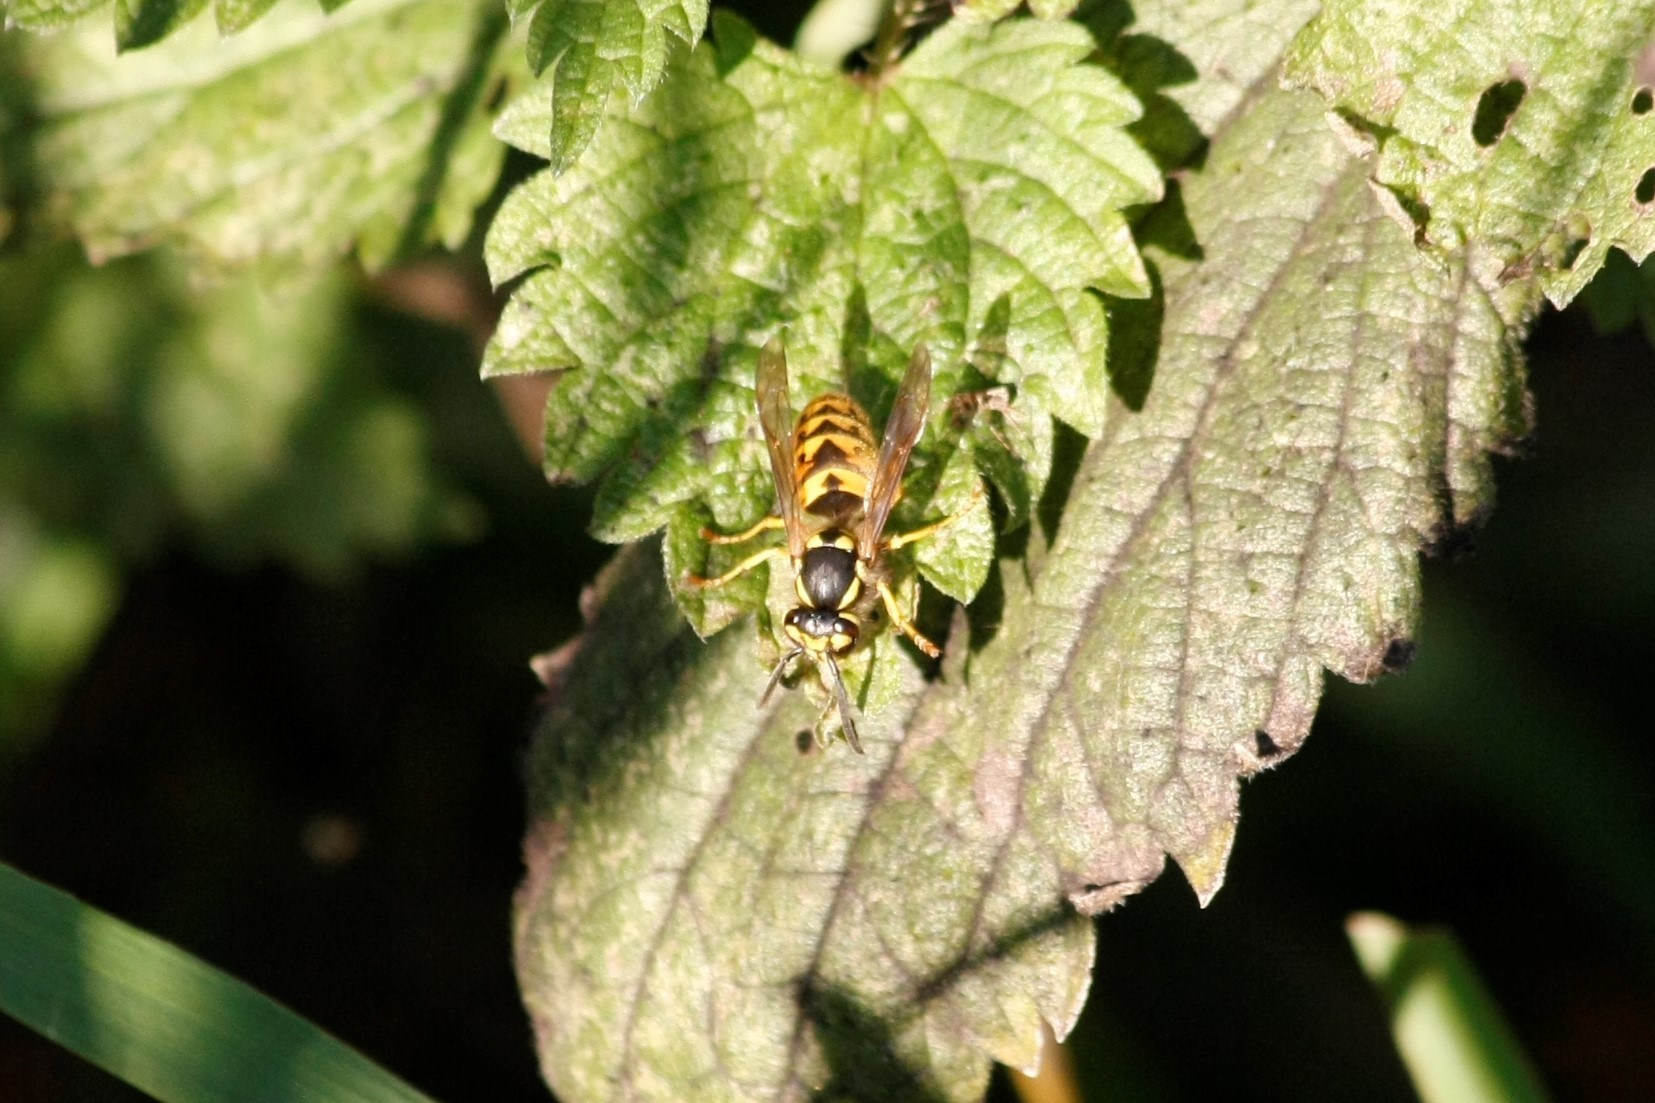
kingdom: Animalia
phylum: Arthropoda
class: Insecta
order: Hymenoptera
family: Vespidae
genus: Vespula
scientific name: Vespula germanica
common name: German wasp
